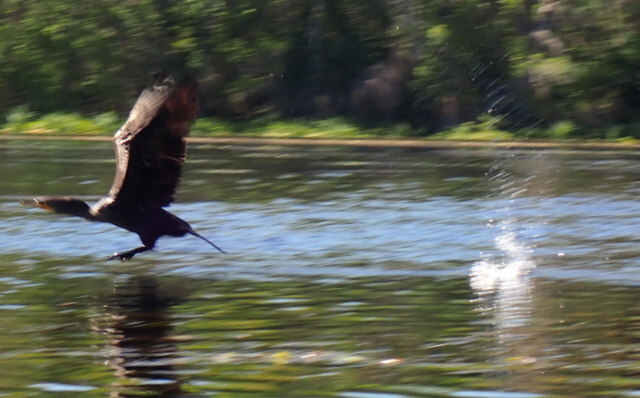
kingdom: Animalia
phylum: Chordata
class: Aves
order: Suliformes
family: Phalacrocoracidae
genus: Phalacrocorax
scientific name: Phalacrocorax auritus
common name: Double-crested cormorant
